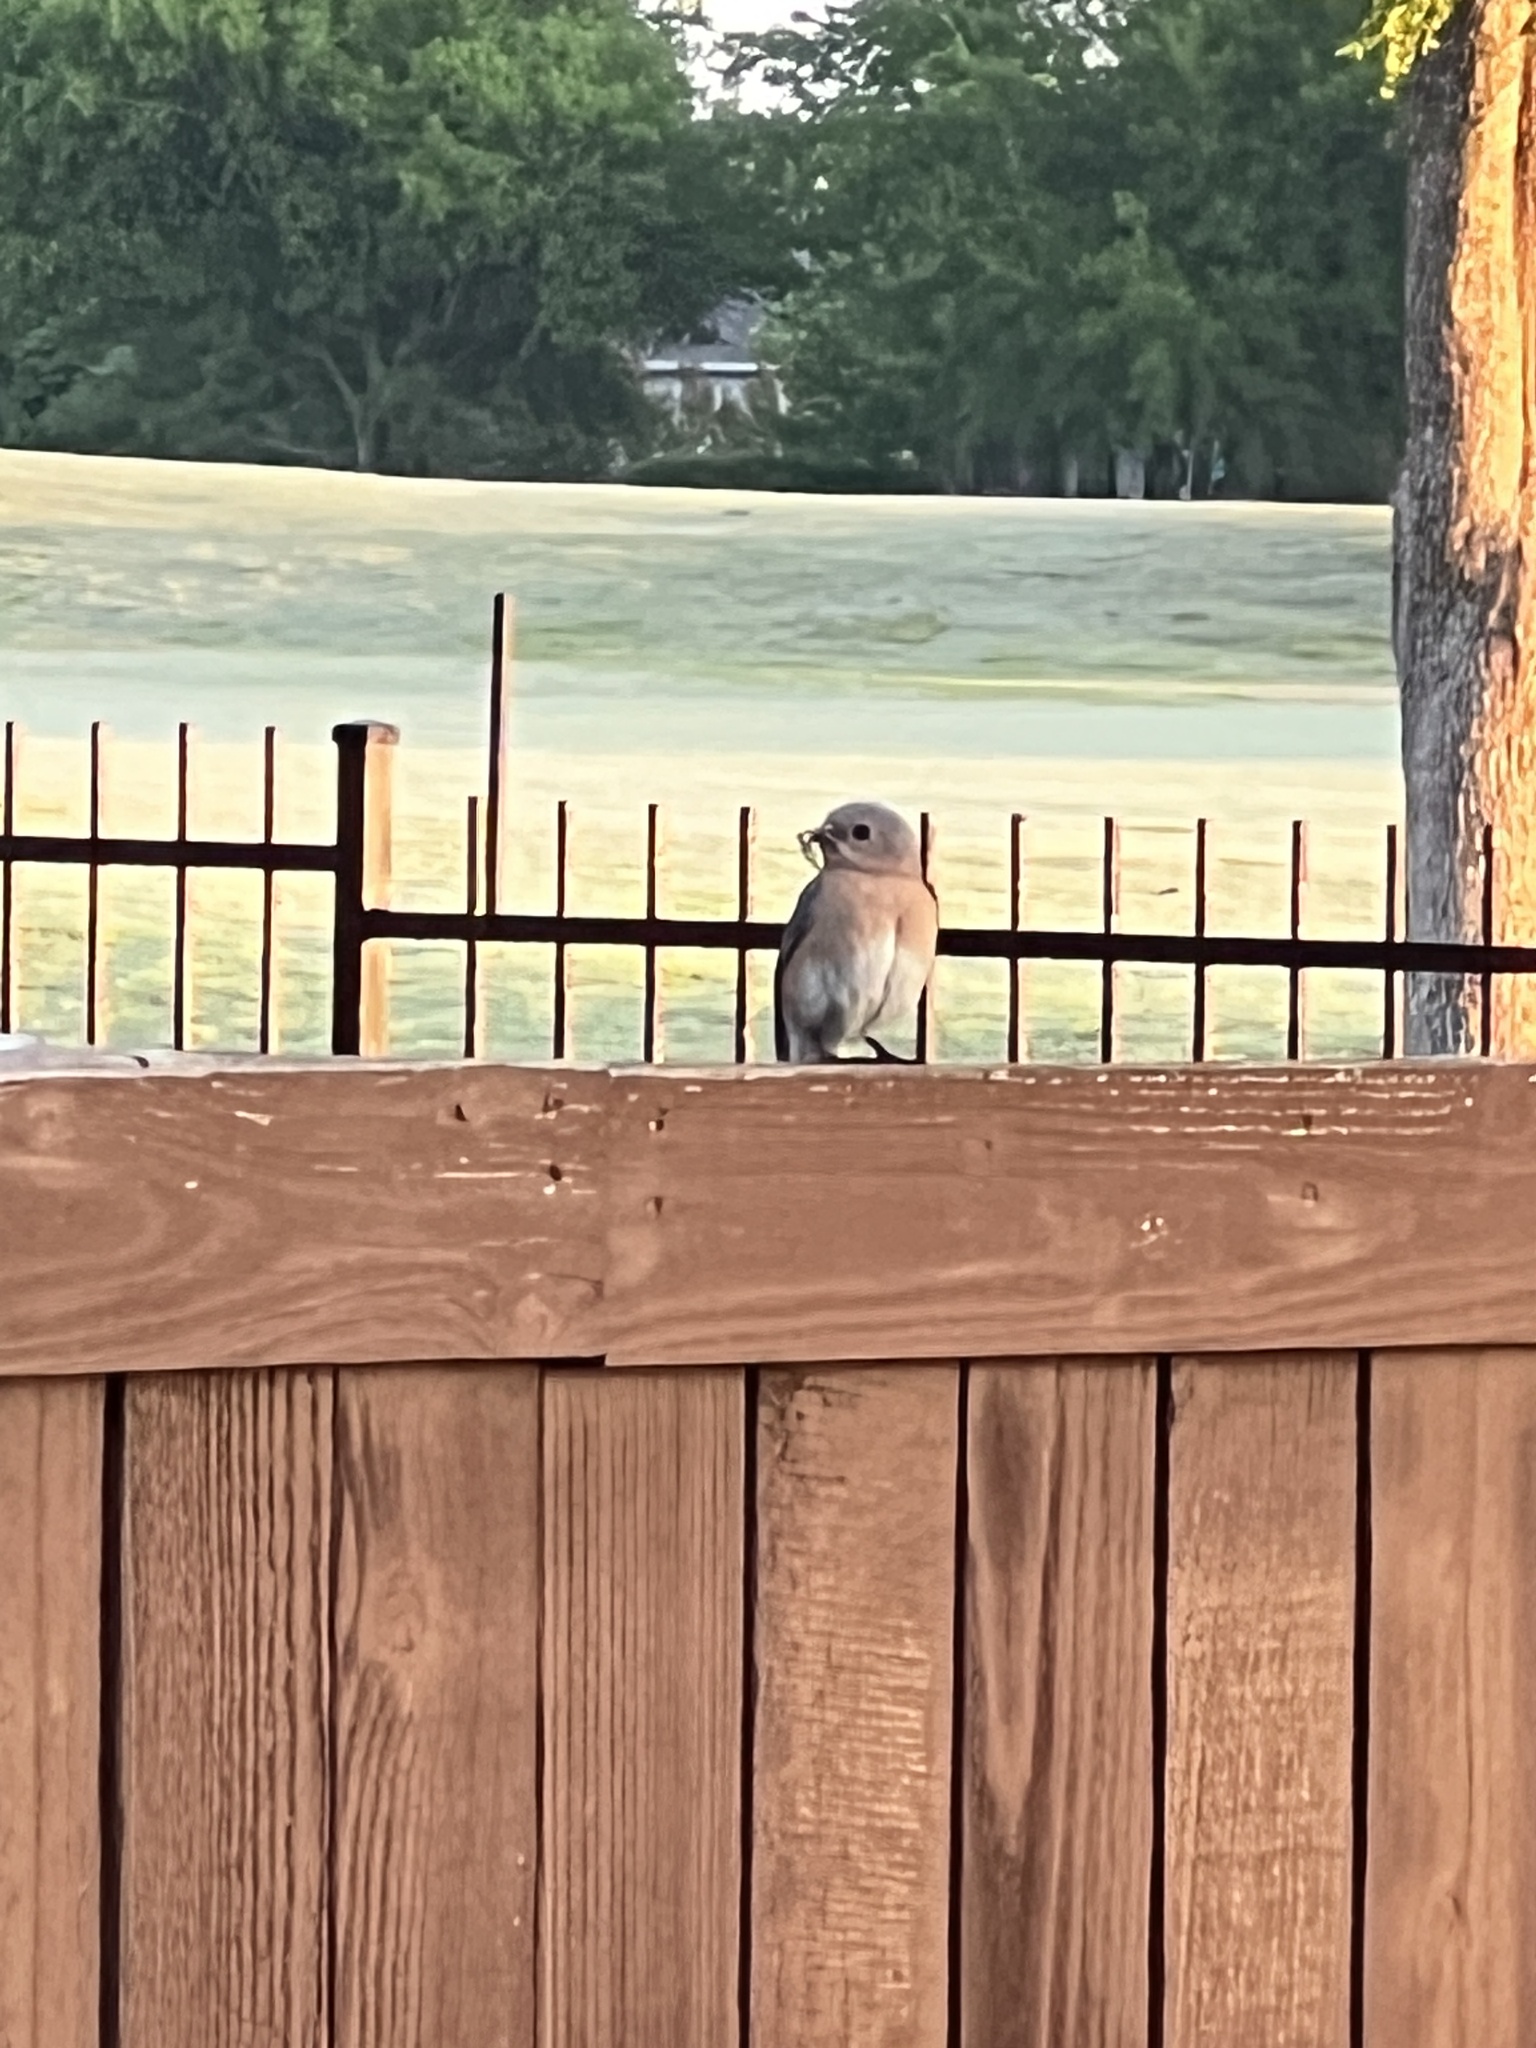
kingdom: Animalia
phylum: Chordata
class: Aves
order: Passeriformes
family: Turdidae
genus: Sialia
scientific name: Sialia sialis
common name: Eastern bluebird
